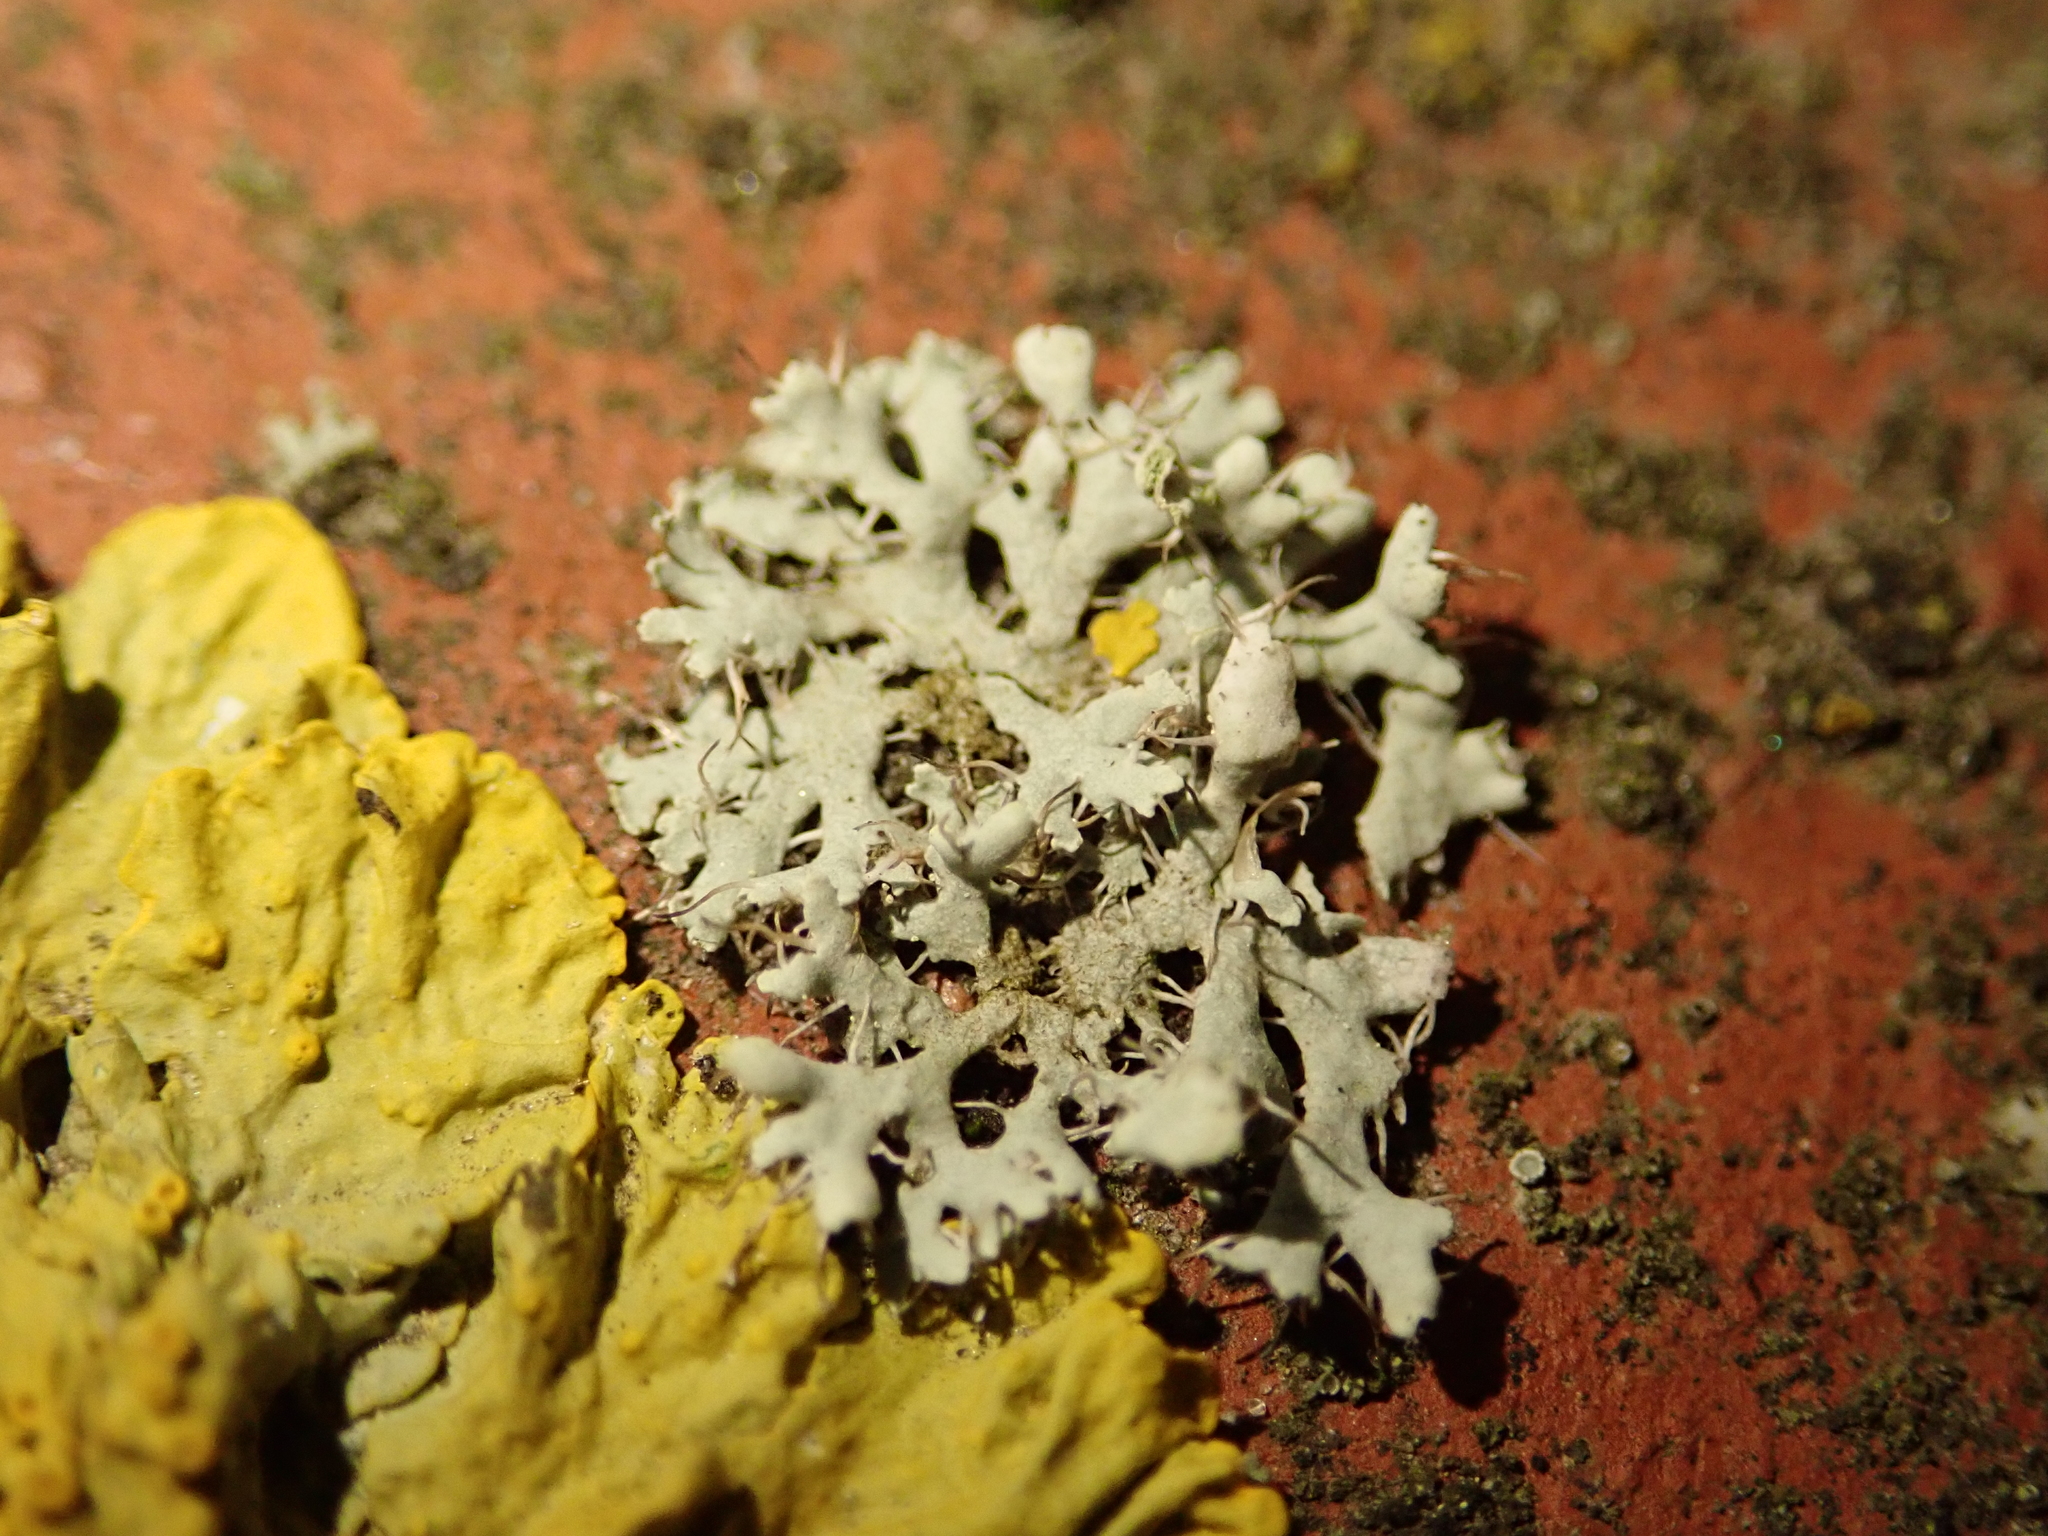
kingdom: Fungi
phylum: Ascomycota
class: Lecanoromycetes
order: Caliciales
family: Physciaceae
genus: Physcia
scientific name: Physcia adscendens
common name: Hooded rosette lichen
